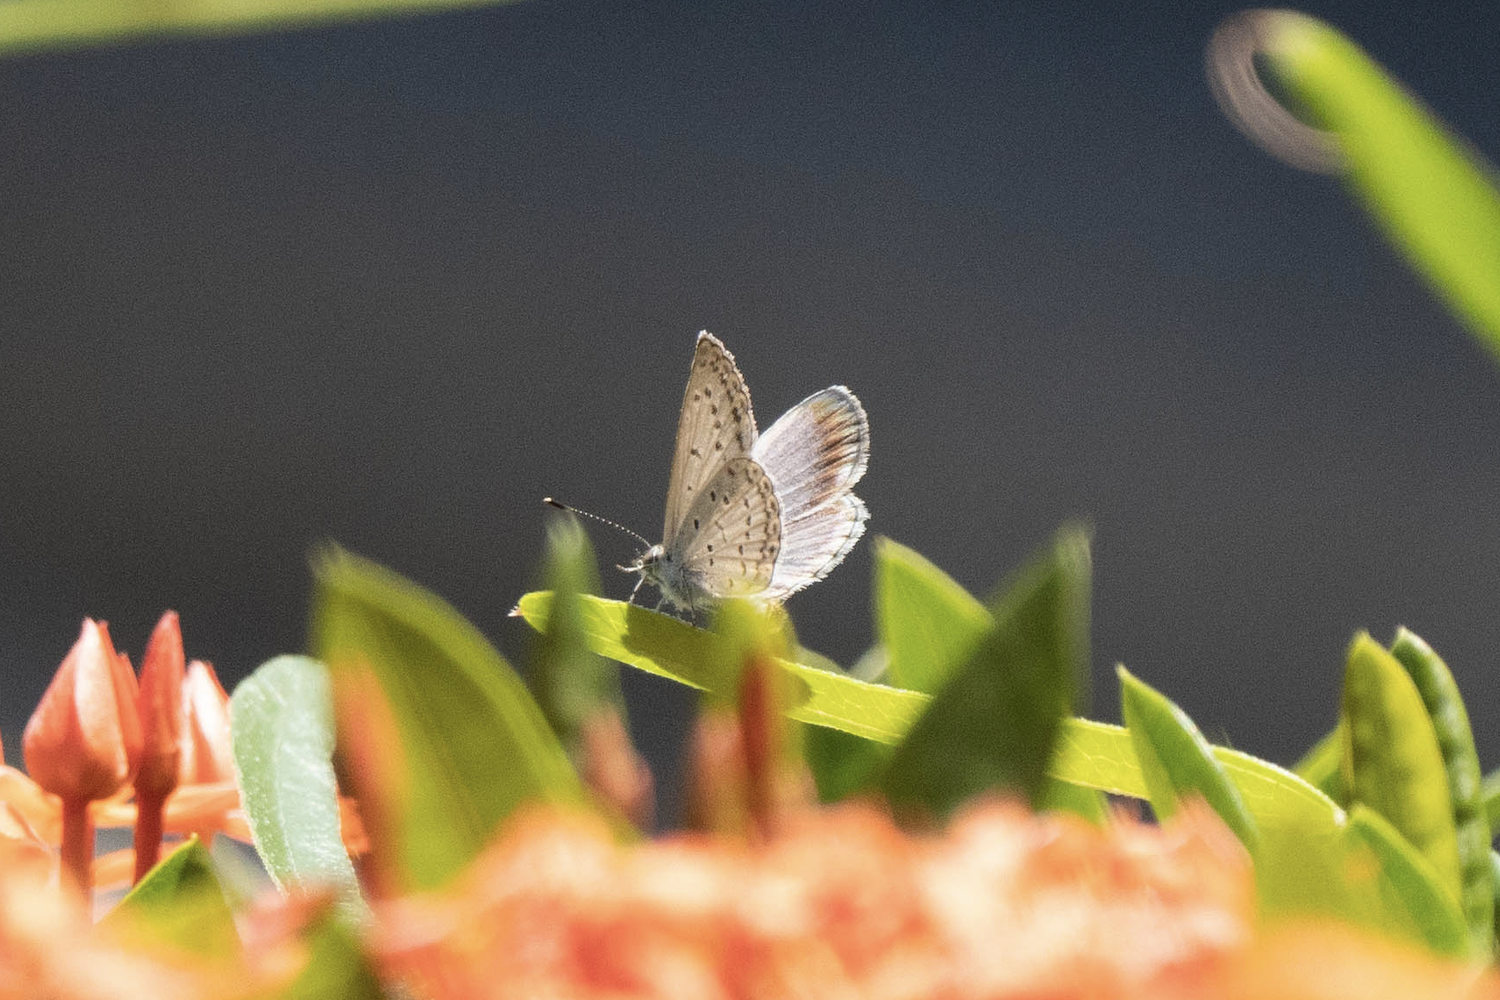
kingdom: Animalia
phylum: Arthropoda
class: Insecta
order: Lepidoptera
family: Lycaenidae
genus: Pseudozizeeria
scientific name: Pseudozizeeria maha
